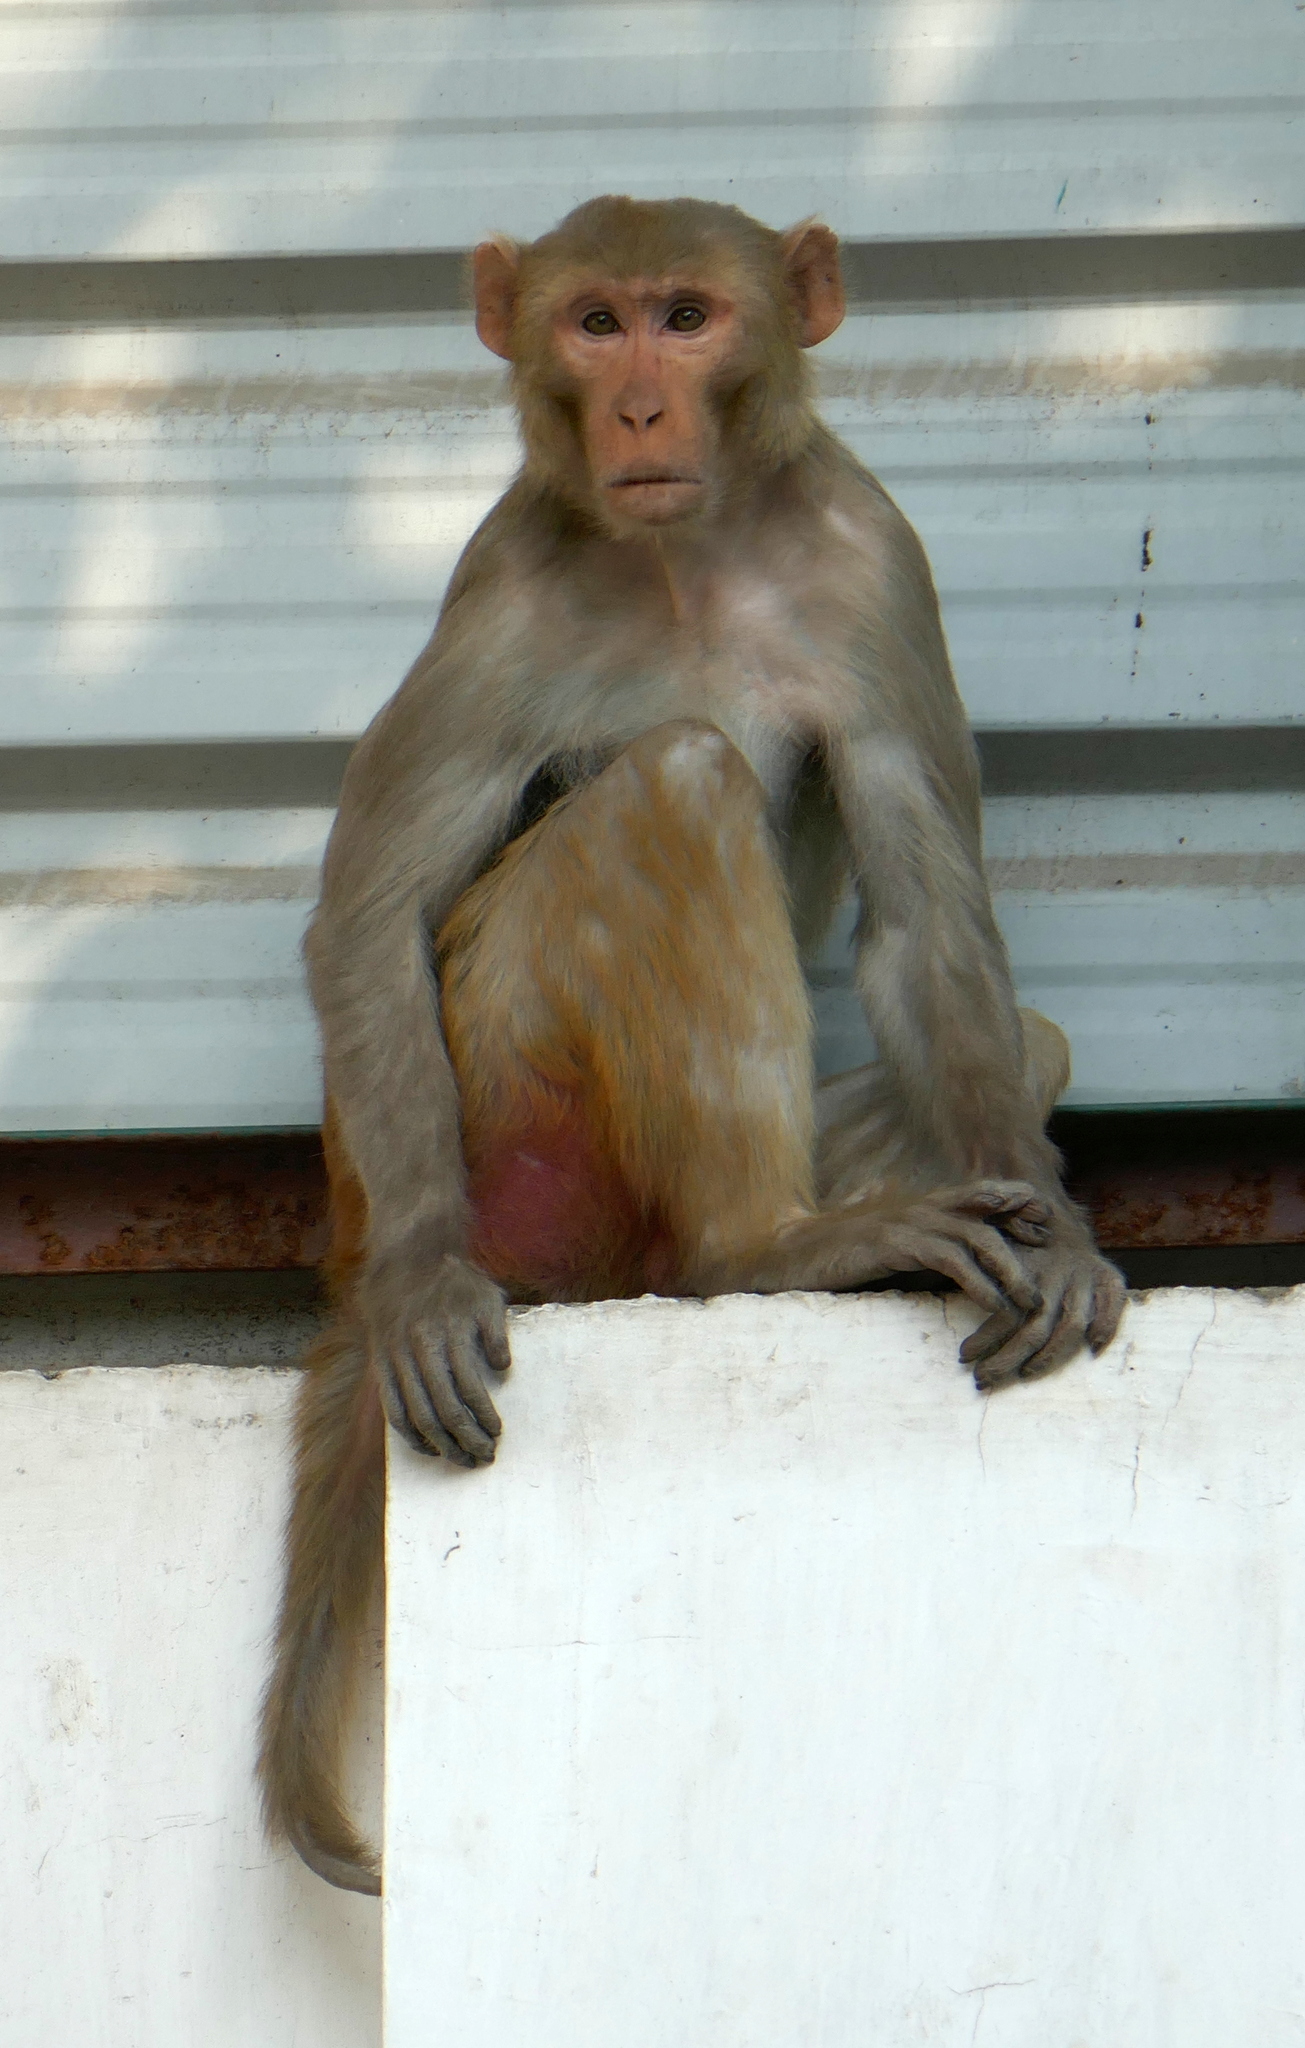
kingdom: Animalia
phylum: Chordata
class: Mammalia
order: Primates
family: Cercopithecidae
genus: Macaca
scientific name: Macaca mulatta
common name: Rhesus monkey
